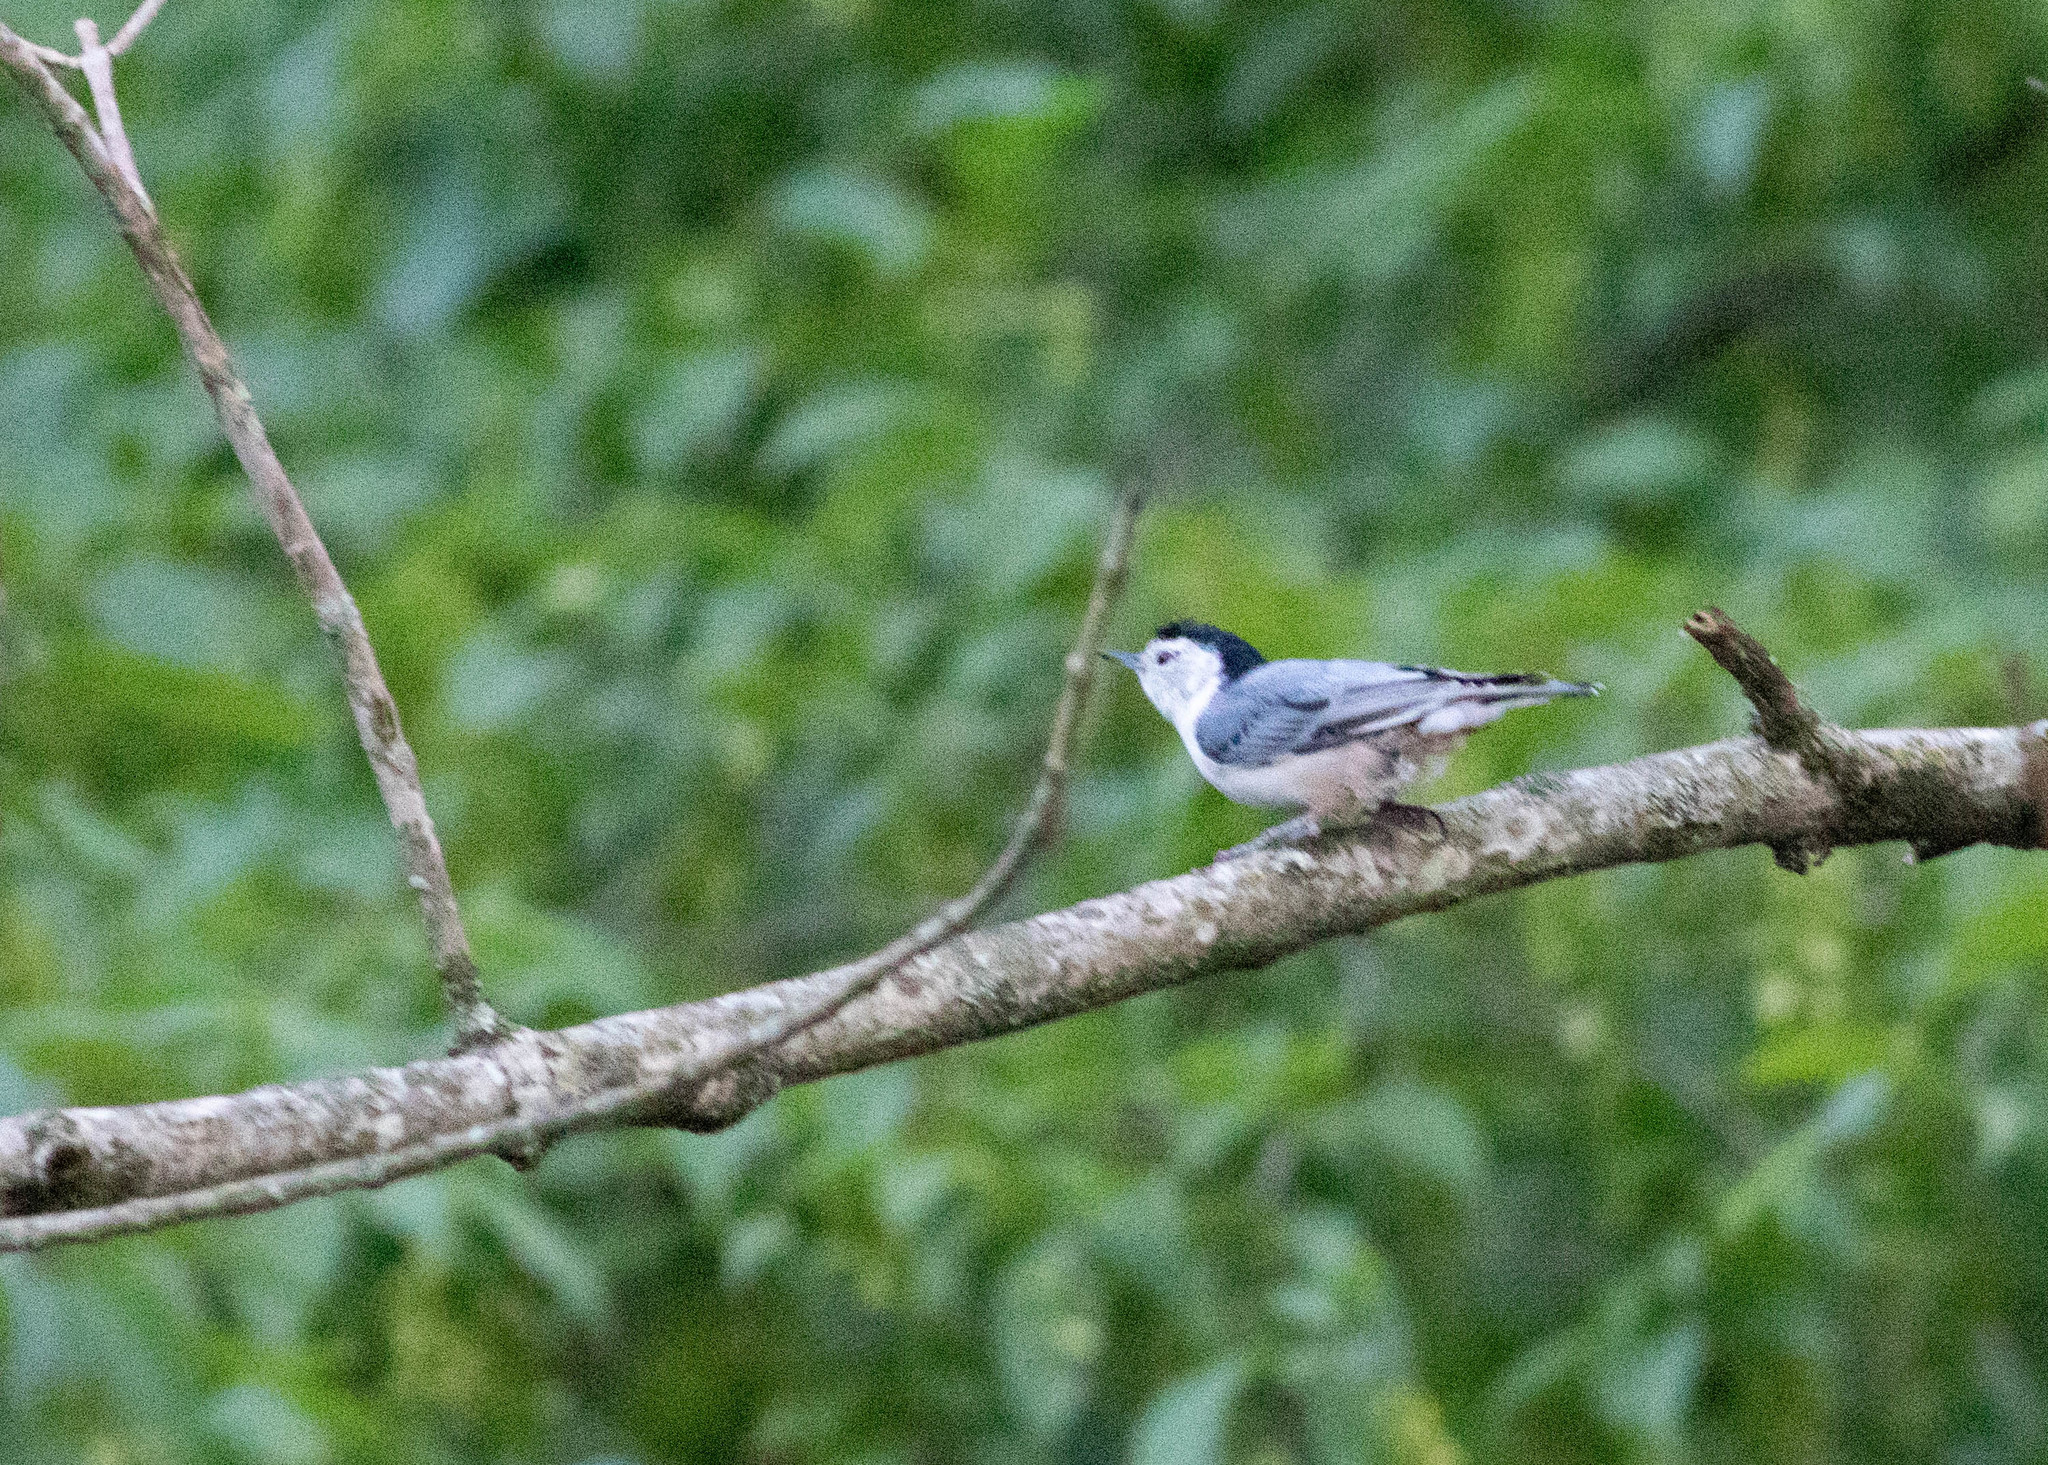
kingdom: Animalia
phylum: Chordata
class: Aves
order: Passeriformes
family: Sittidae
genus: Sitta
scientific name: Sitta carolinensis
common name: White-breasted nuthatch
